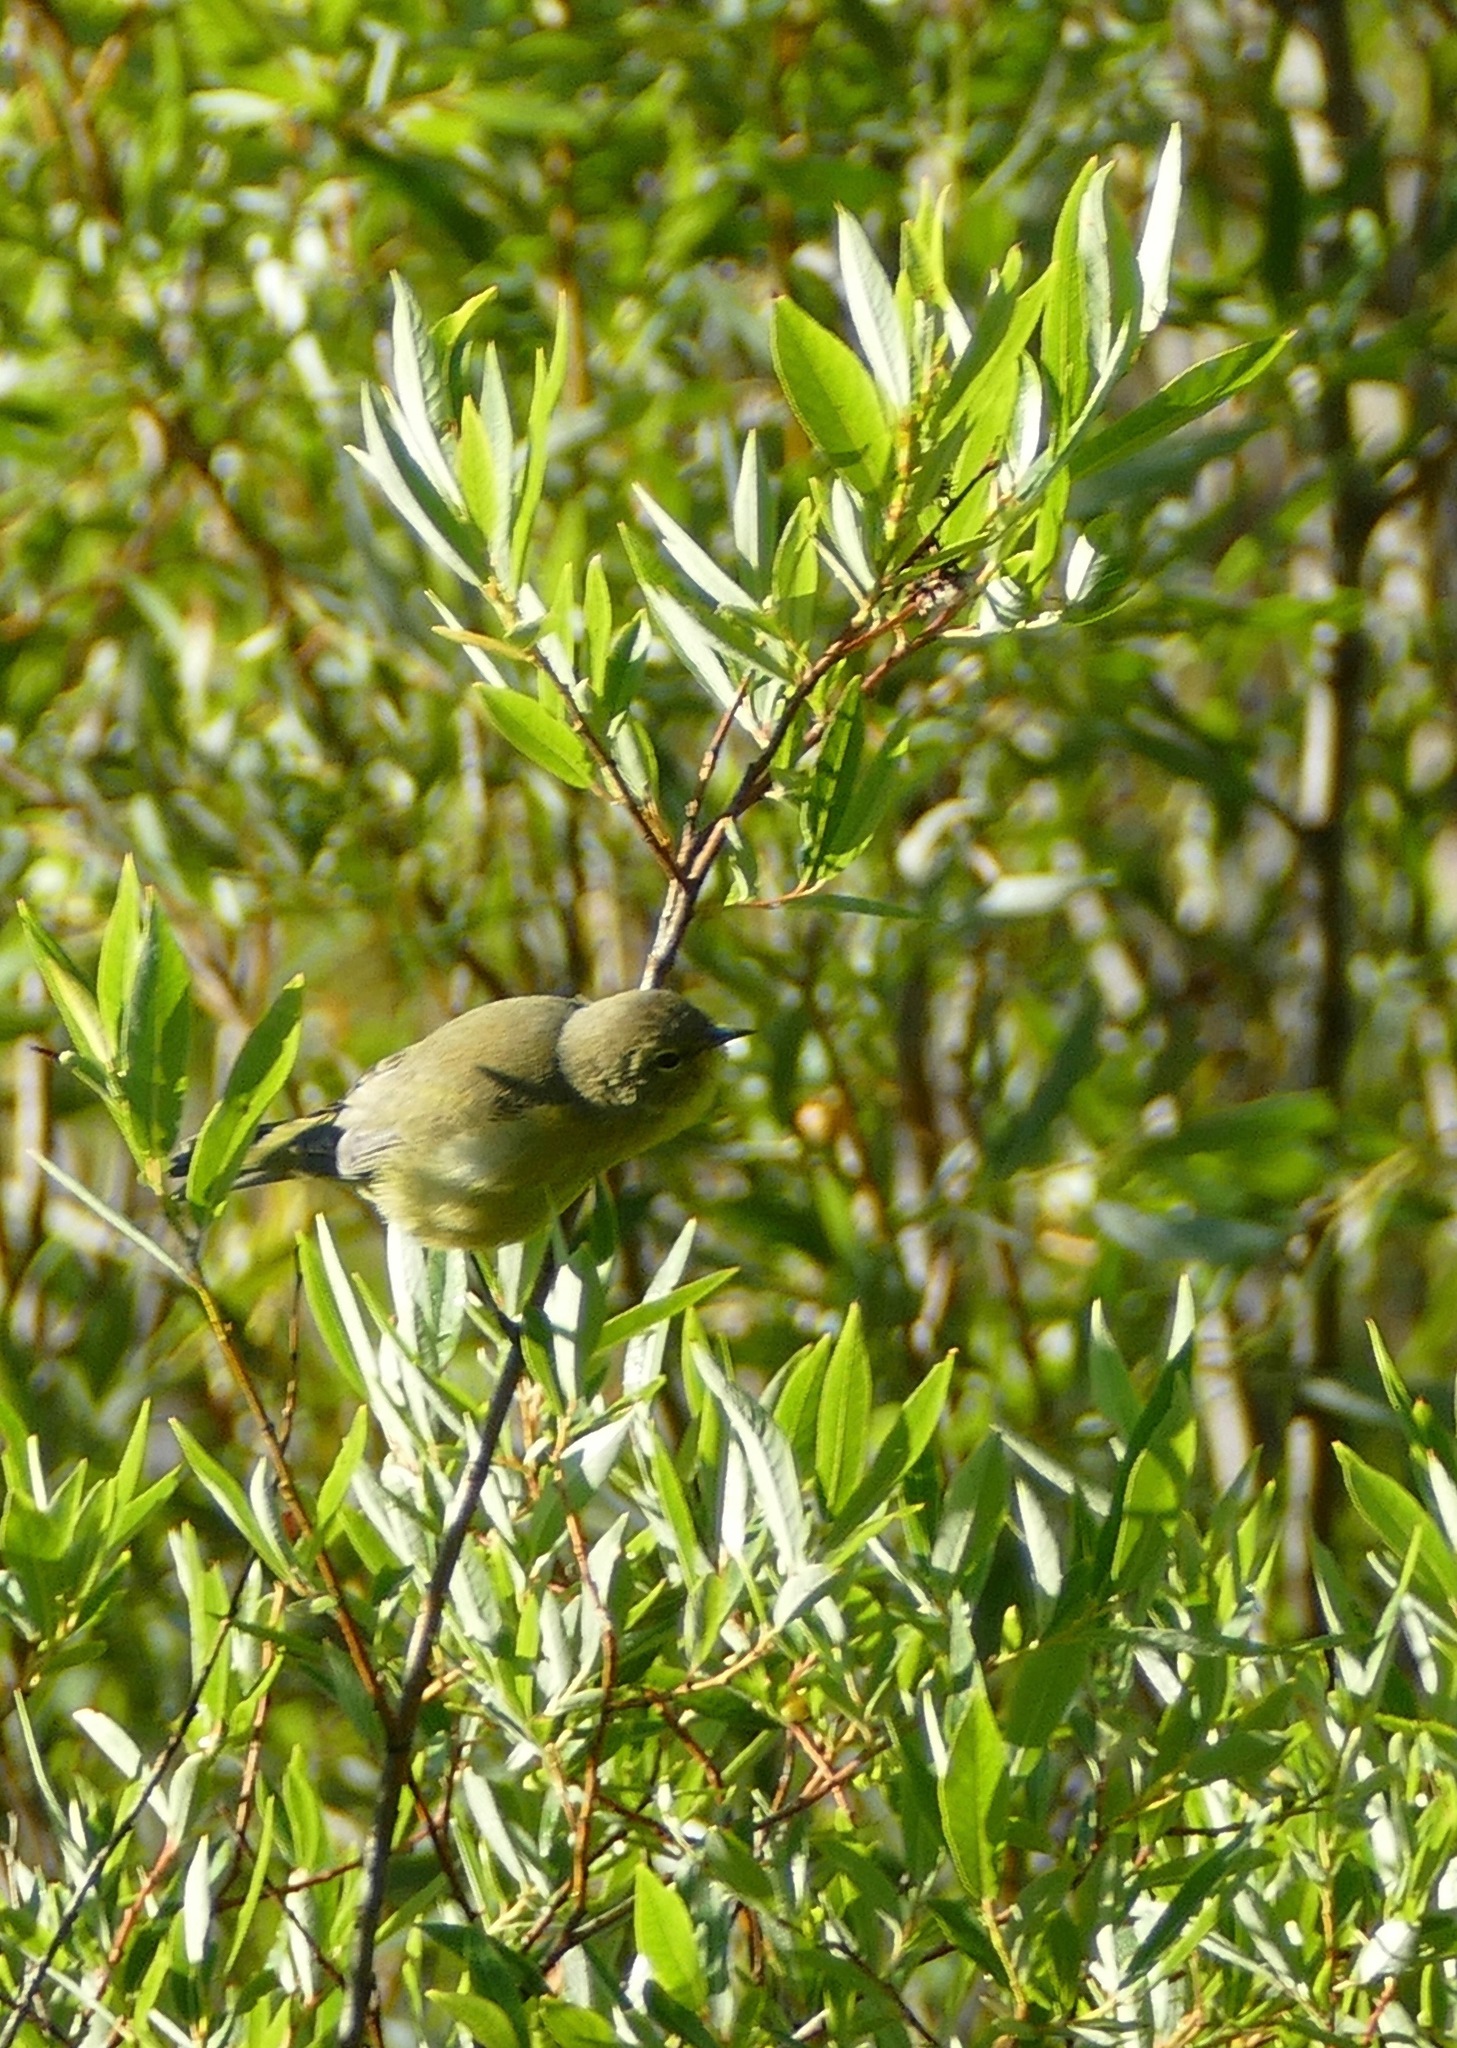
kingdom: Animalia
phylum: Chordata
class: Aves
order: Passeriformes
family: Parulidae
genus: Leiothlypis
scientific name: Leiothlypis celata
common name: Orange-crowned warbler
